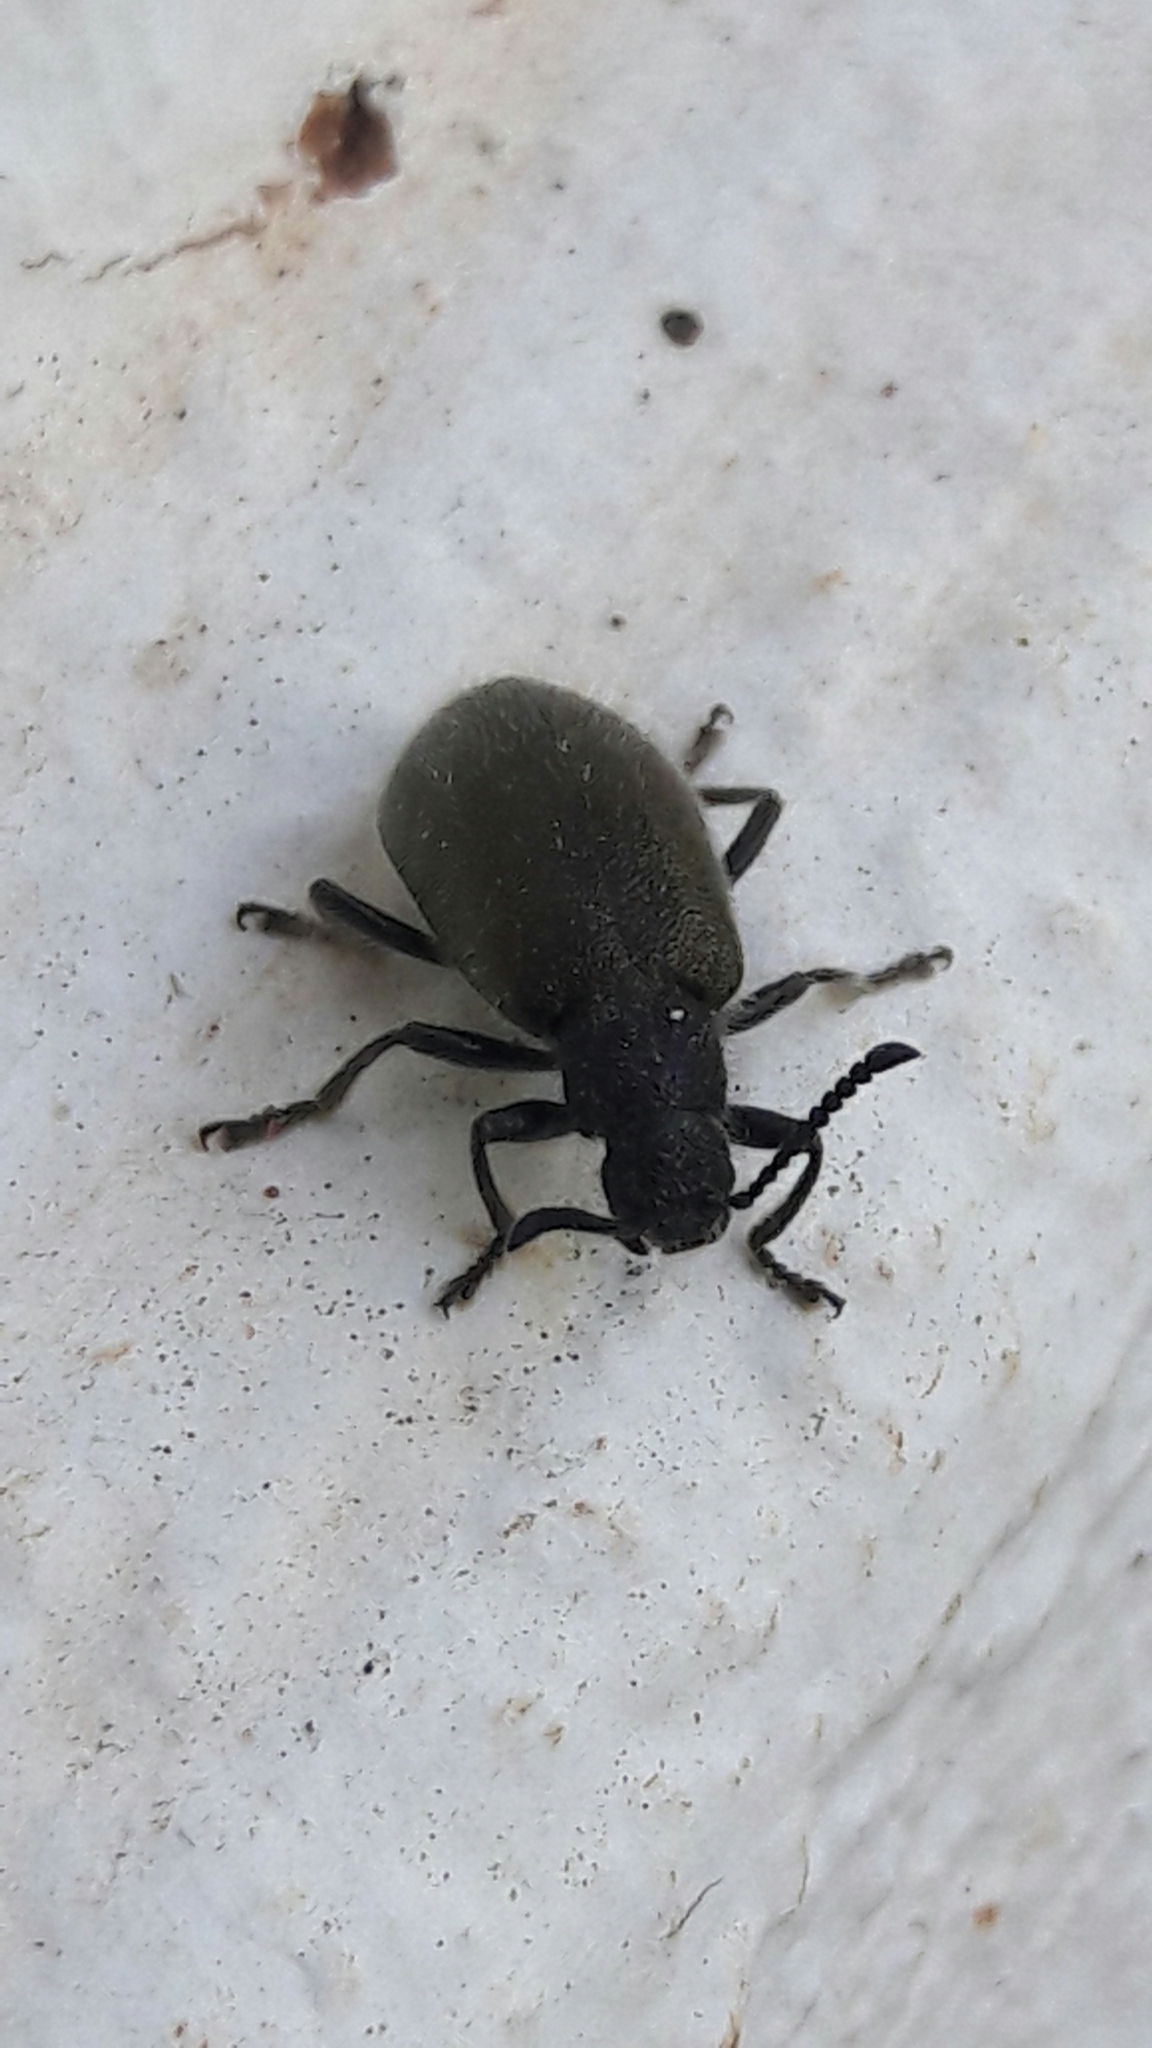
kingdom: Animalia
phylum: Arthropoda
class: Insecta
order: Coleoptera
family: Tenebrionidae
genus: Lagria
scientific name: Lagria villosa
